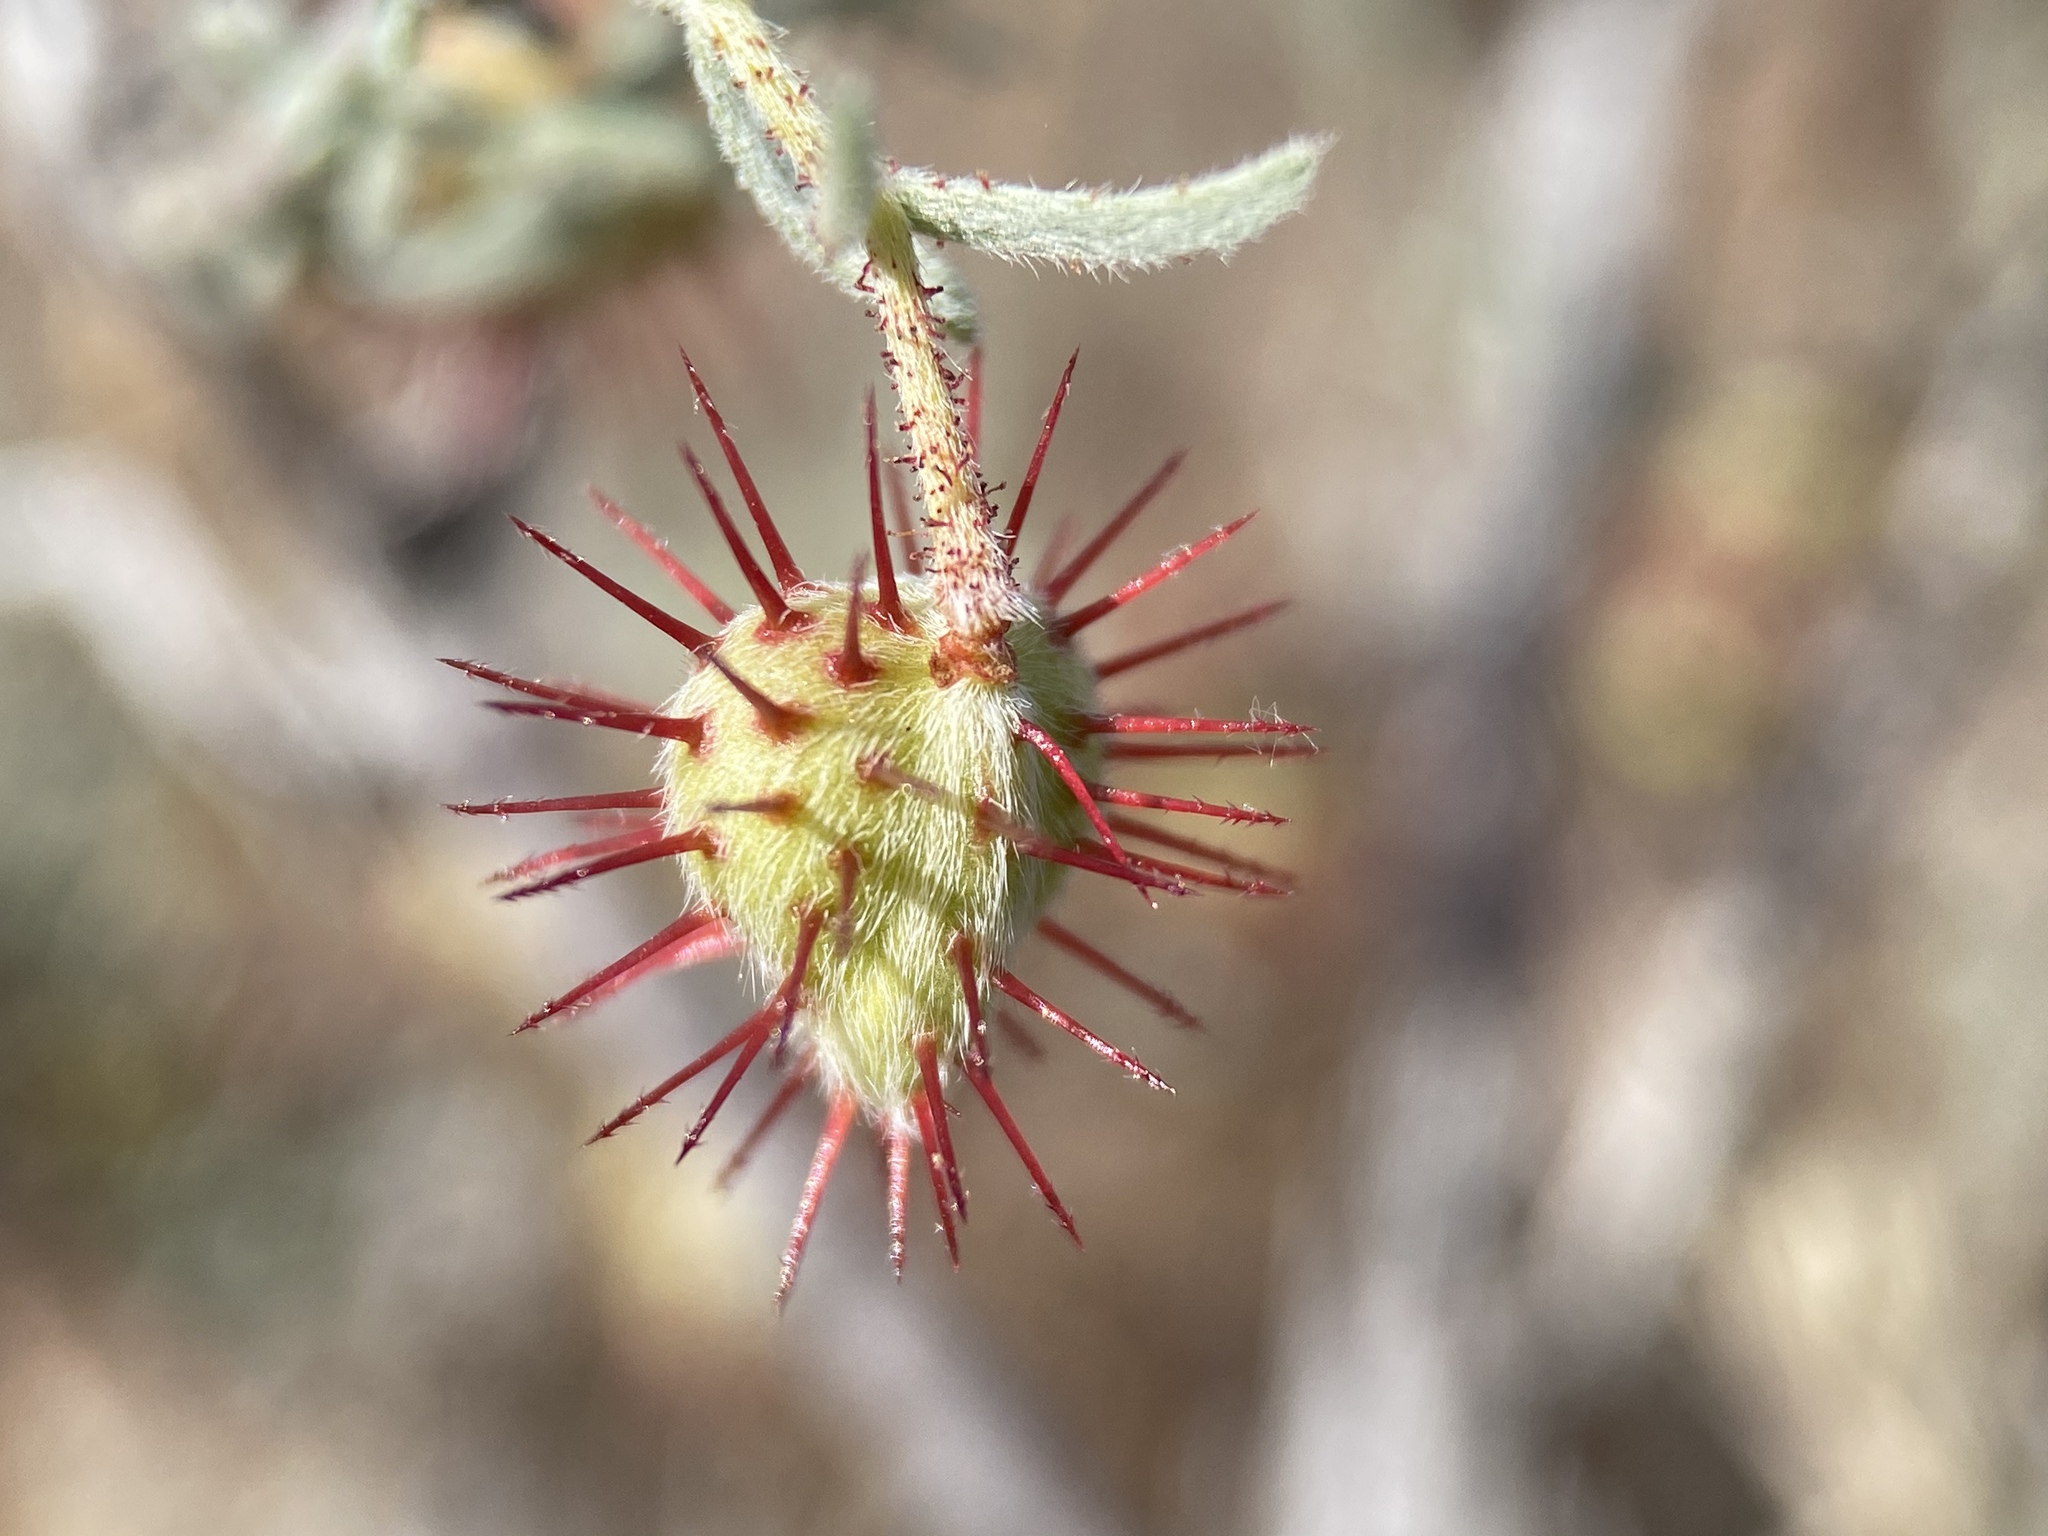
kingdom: Plantae
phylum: Tracheophyta
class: Magnoliopsida
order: Zygophyllales
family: Krameriaceae
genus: Krameria
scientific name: Krameria erecta
